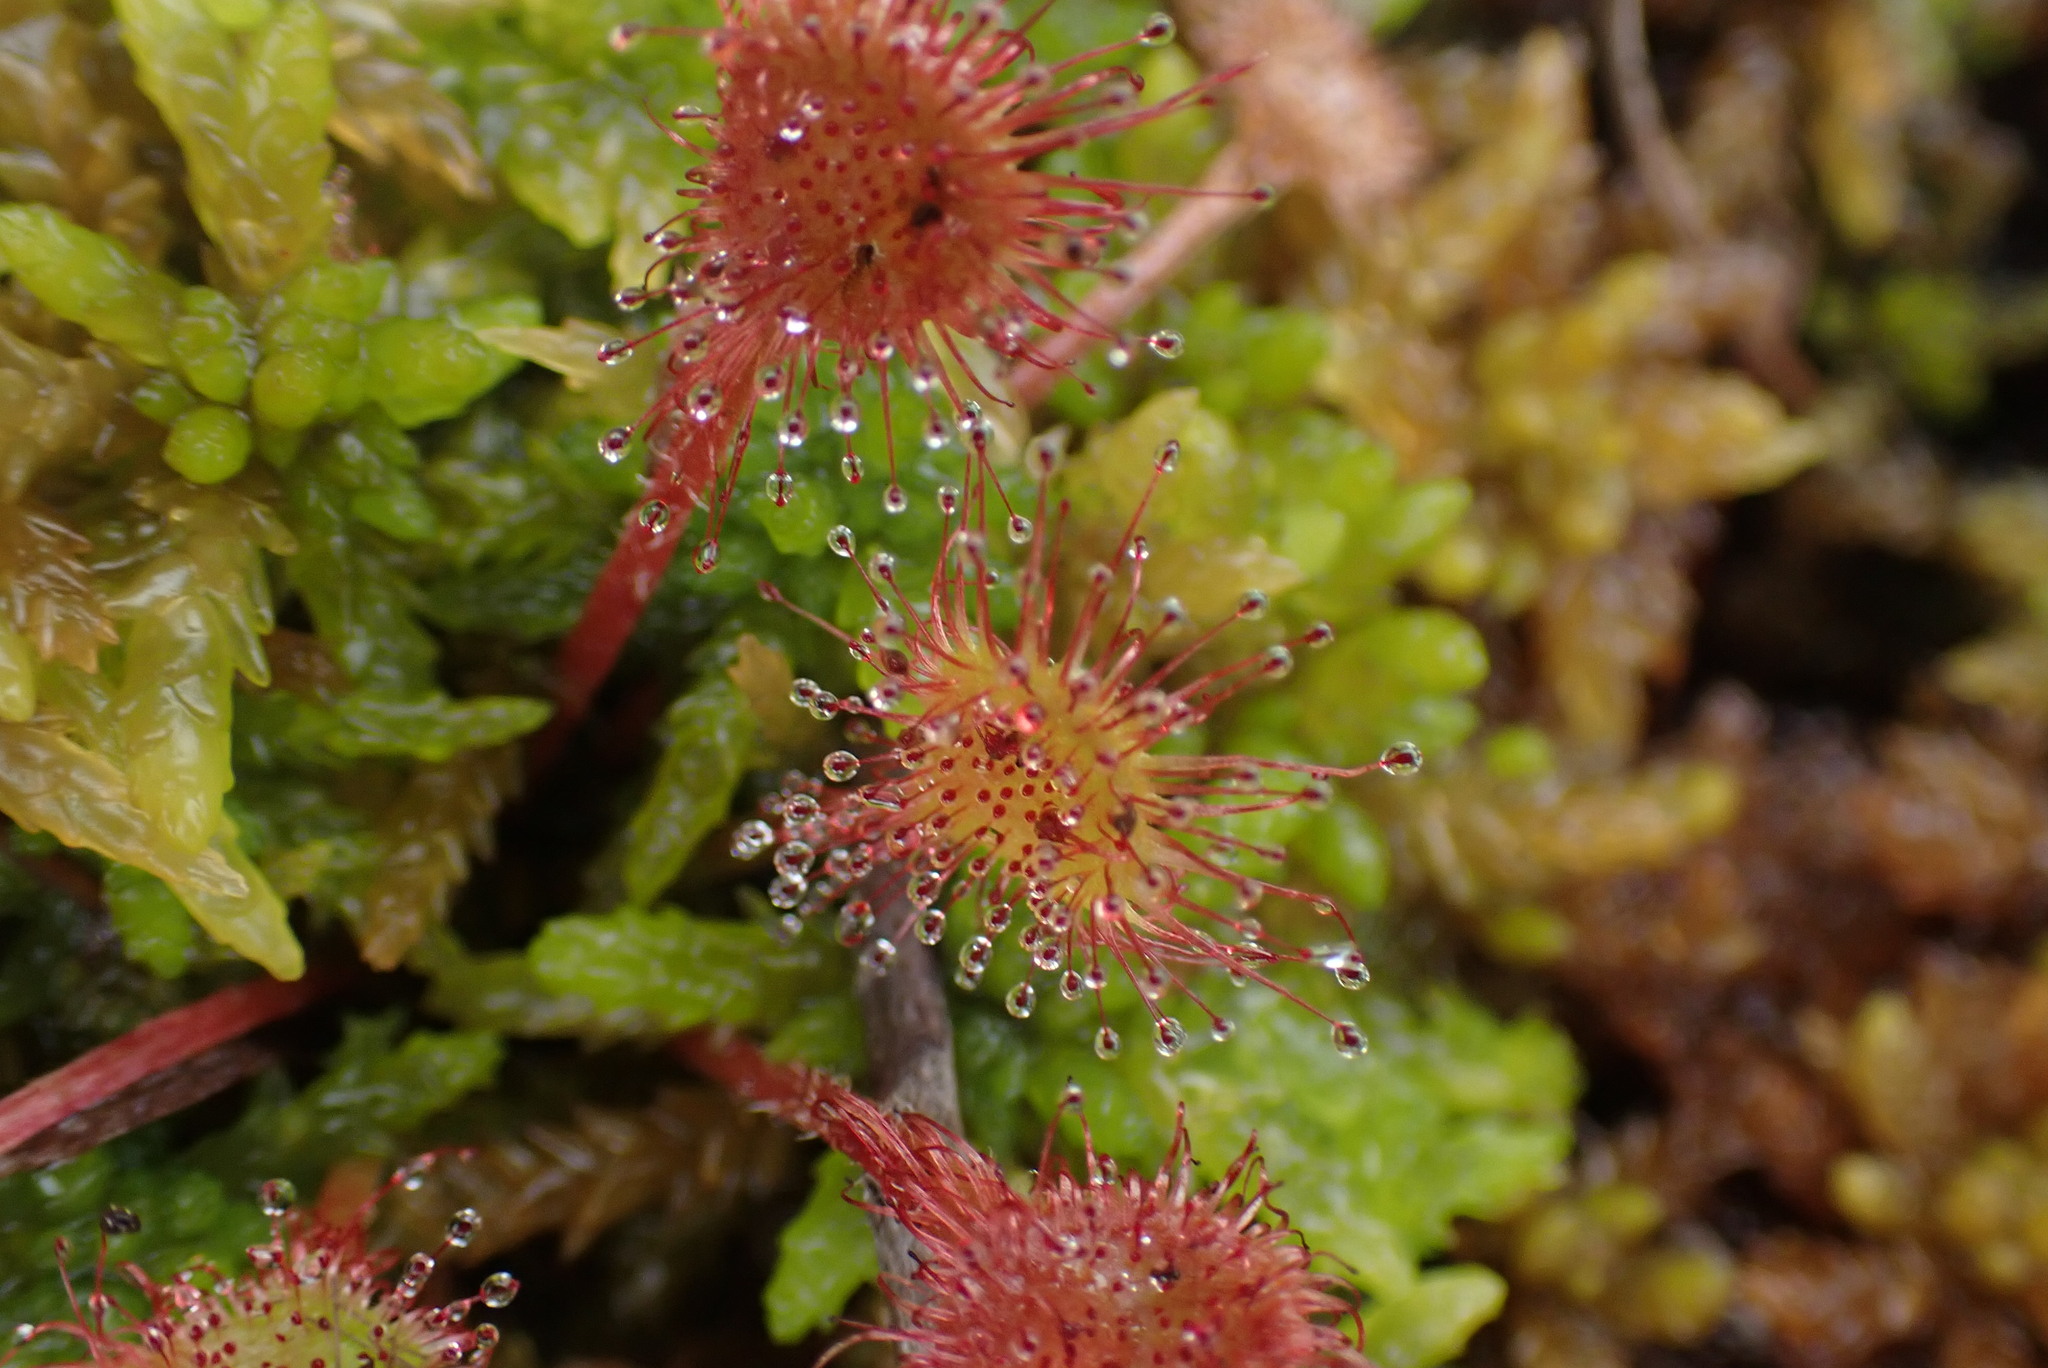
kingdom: Plantae
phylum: Tracheophyta
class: Magnoliopsida
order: Caryophyllales
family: Droseraceae
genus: Drosera
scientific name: Drosera rotundifolia
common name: Round-leaved sundew
